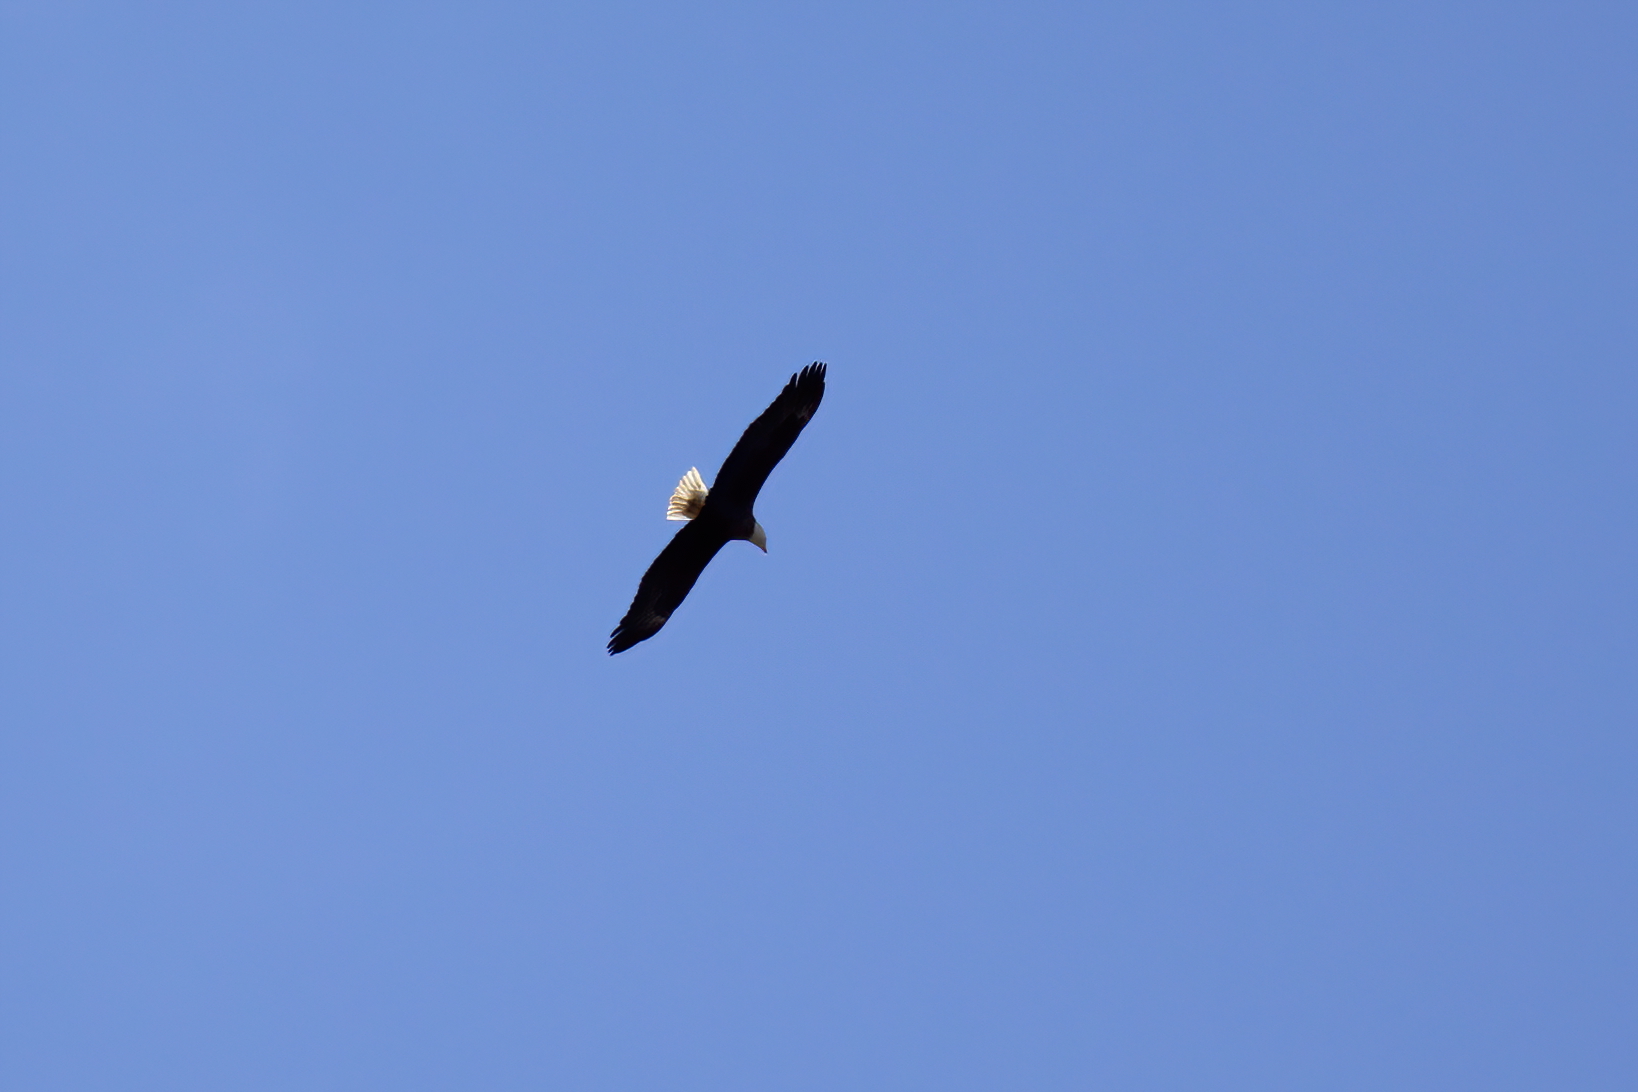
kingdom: Animalia
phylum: Chordata
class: Aves
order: Accipitriformes
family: Accipitridae
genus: Haliaeetus
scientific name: Haliaeetus leucocephalus
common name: Bald eagle
